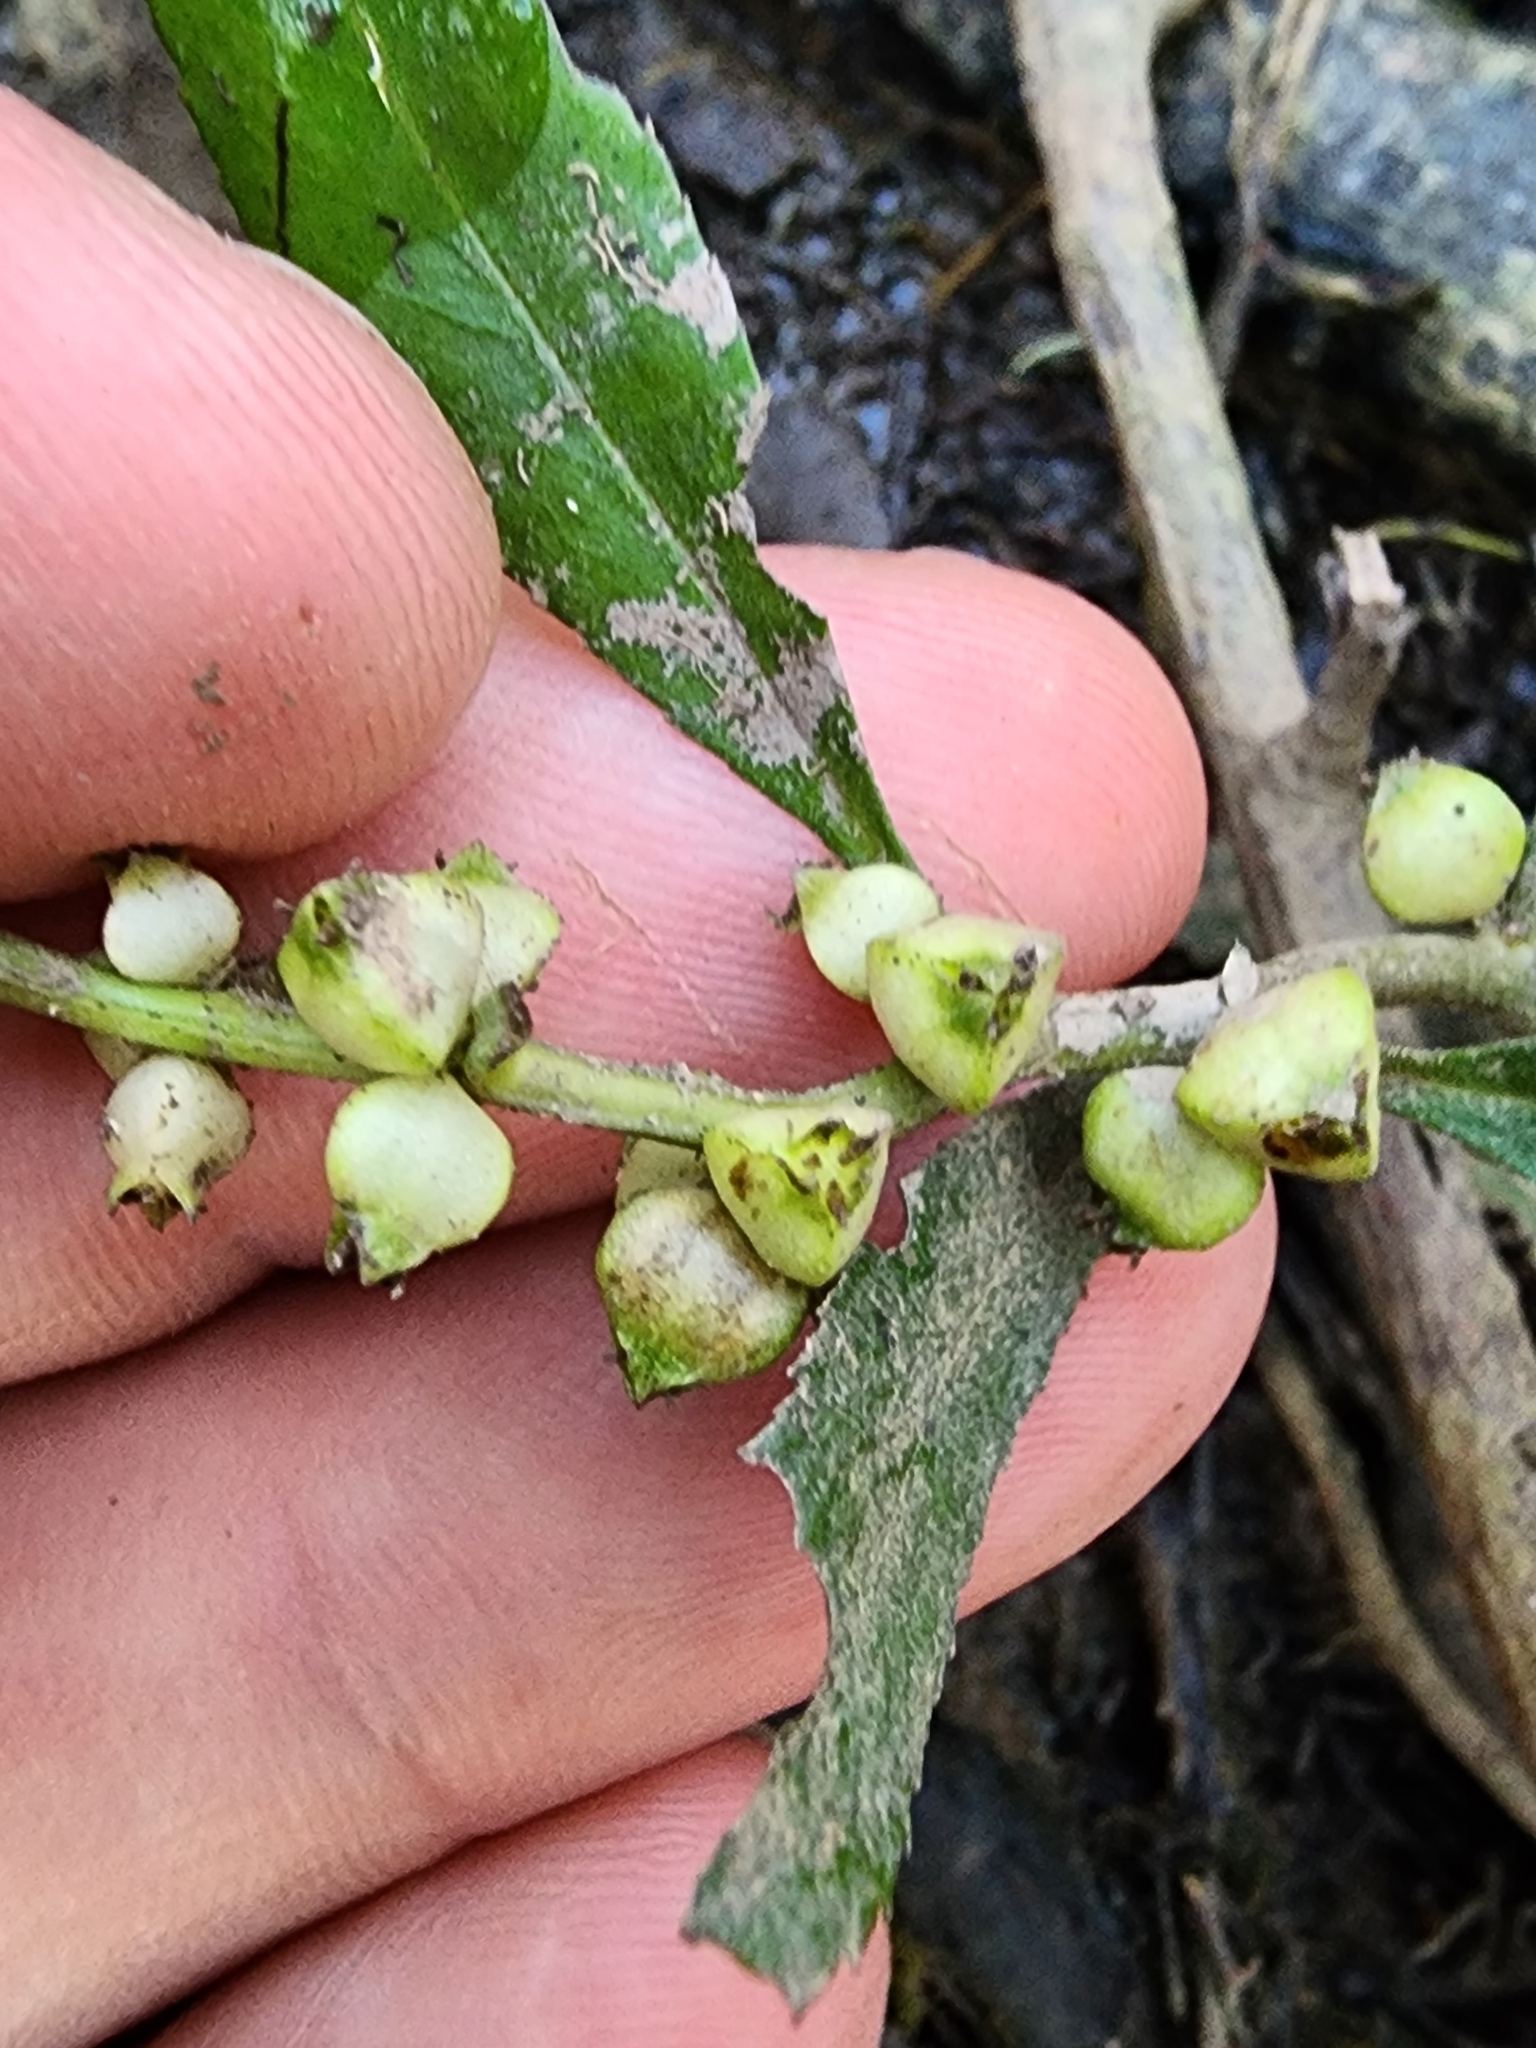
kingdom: Plantae
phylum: Tracheophyta
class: Magnoliopsida
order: Saxifragales
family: Haloragaceae
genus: Proserpinaca
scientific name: Proserpinaca palustris
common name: Marsh mermaidweed
